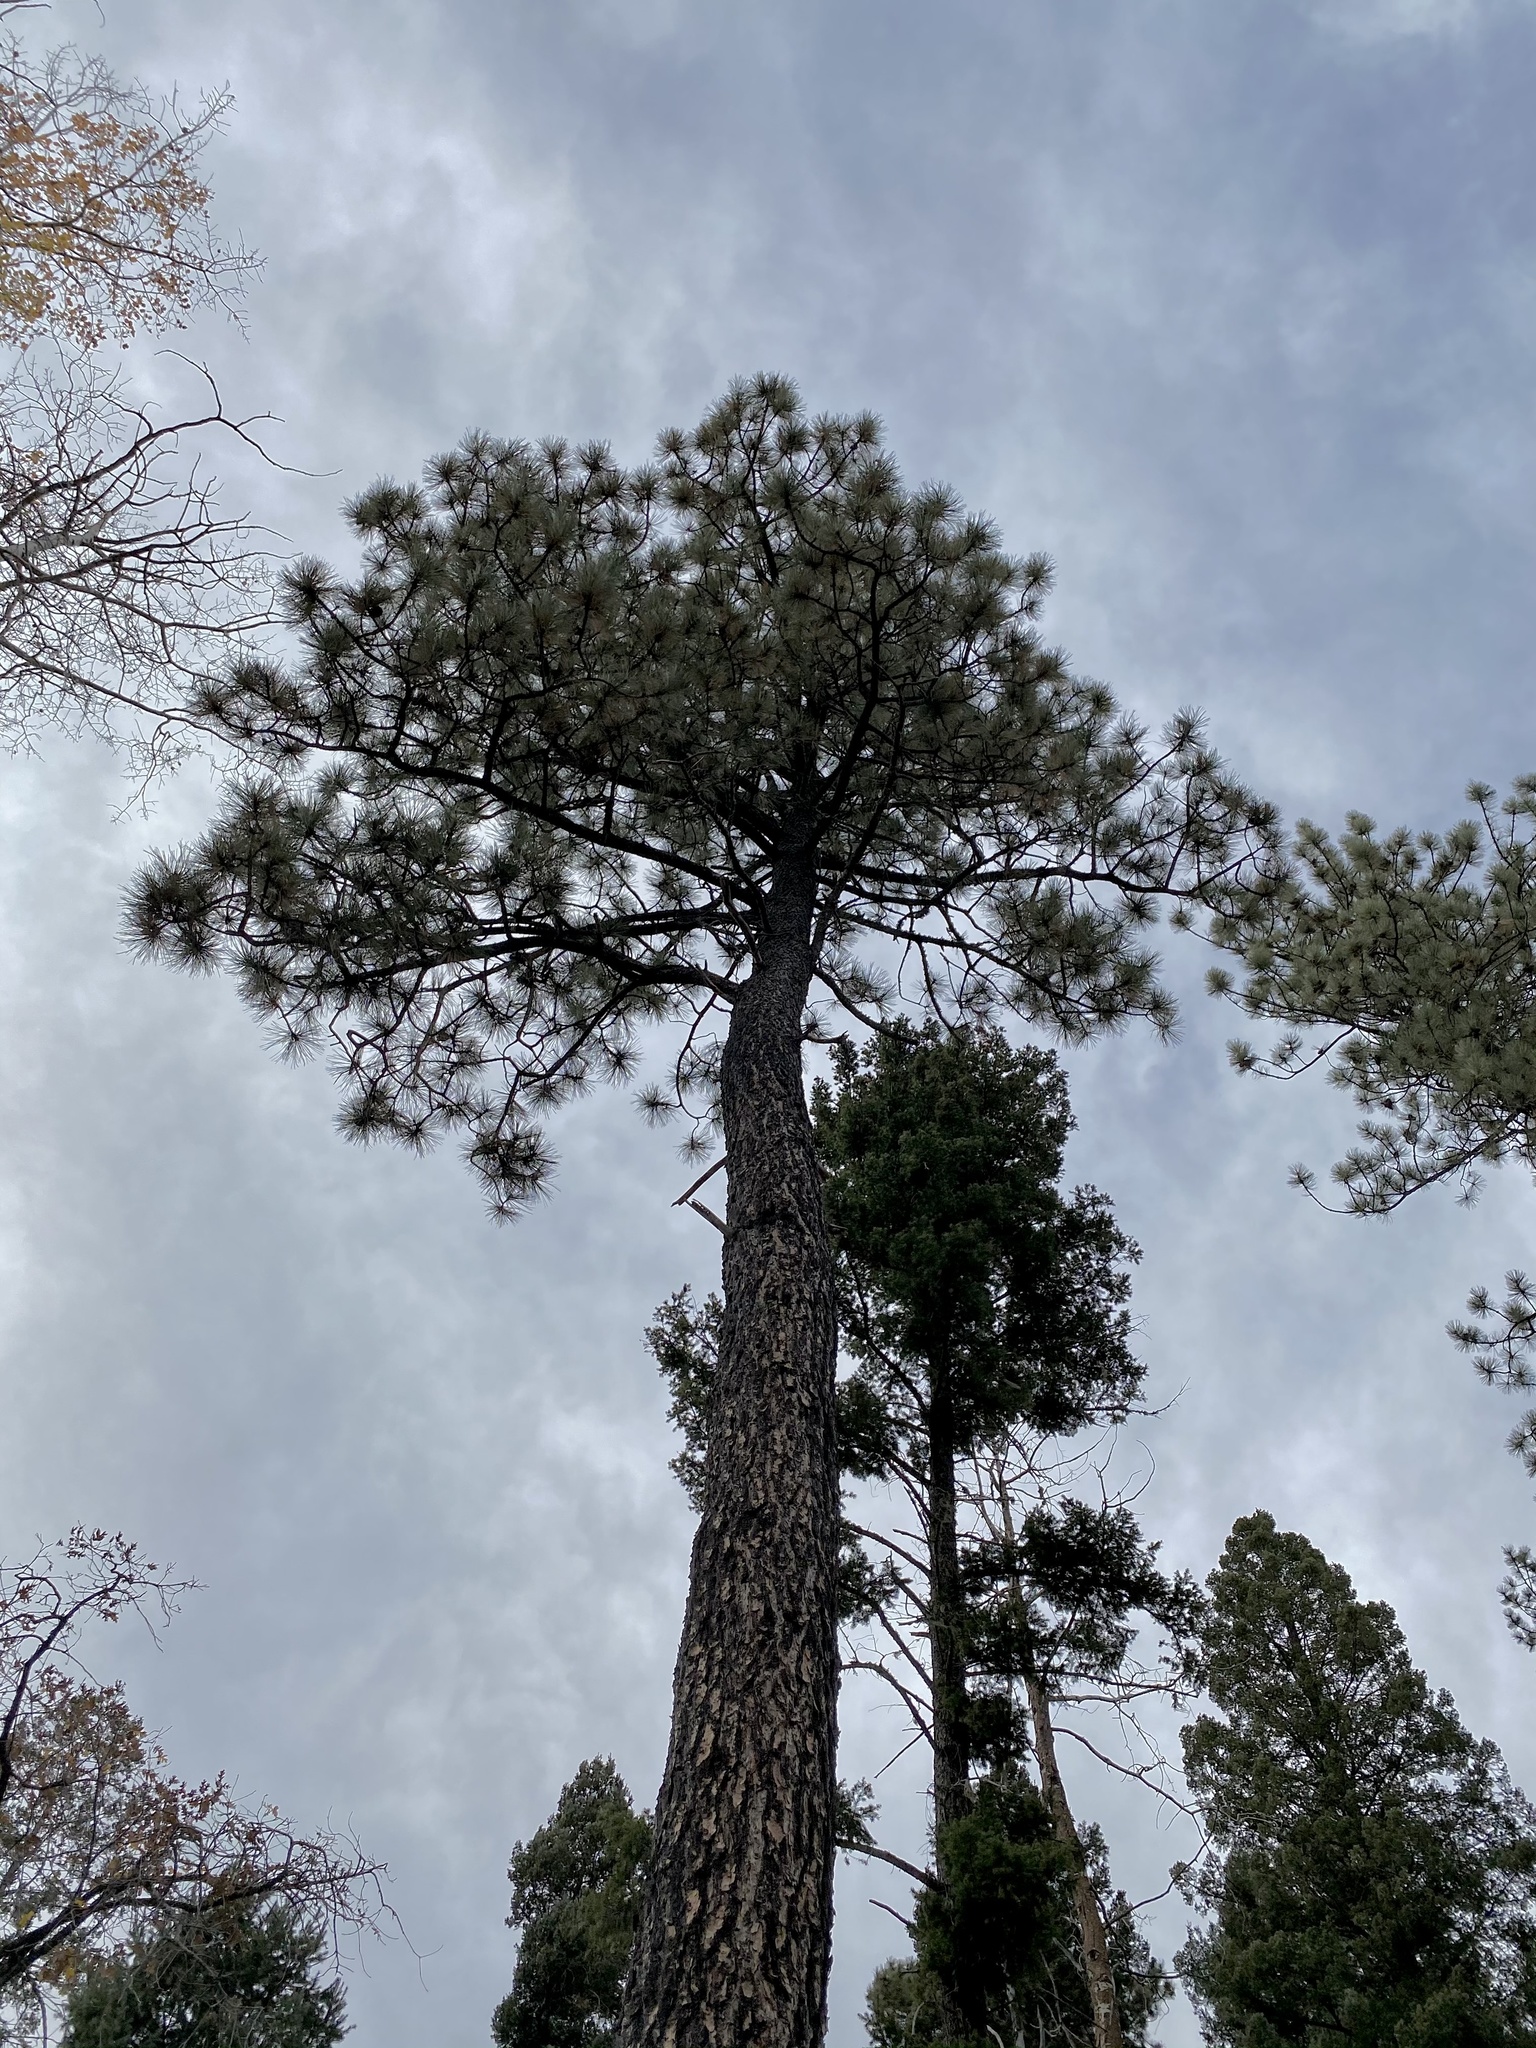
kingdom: Plantae
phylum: Tracheophyta
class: Pinopsida
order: Pinales
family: Pinaceae
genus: Pinus
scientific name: Pinus ponderosa
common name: Western yellow-pine
